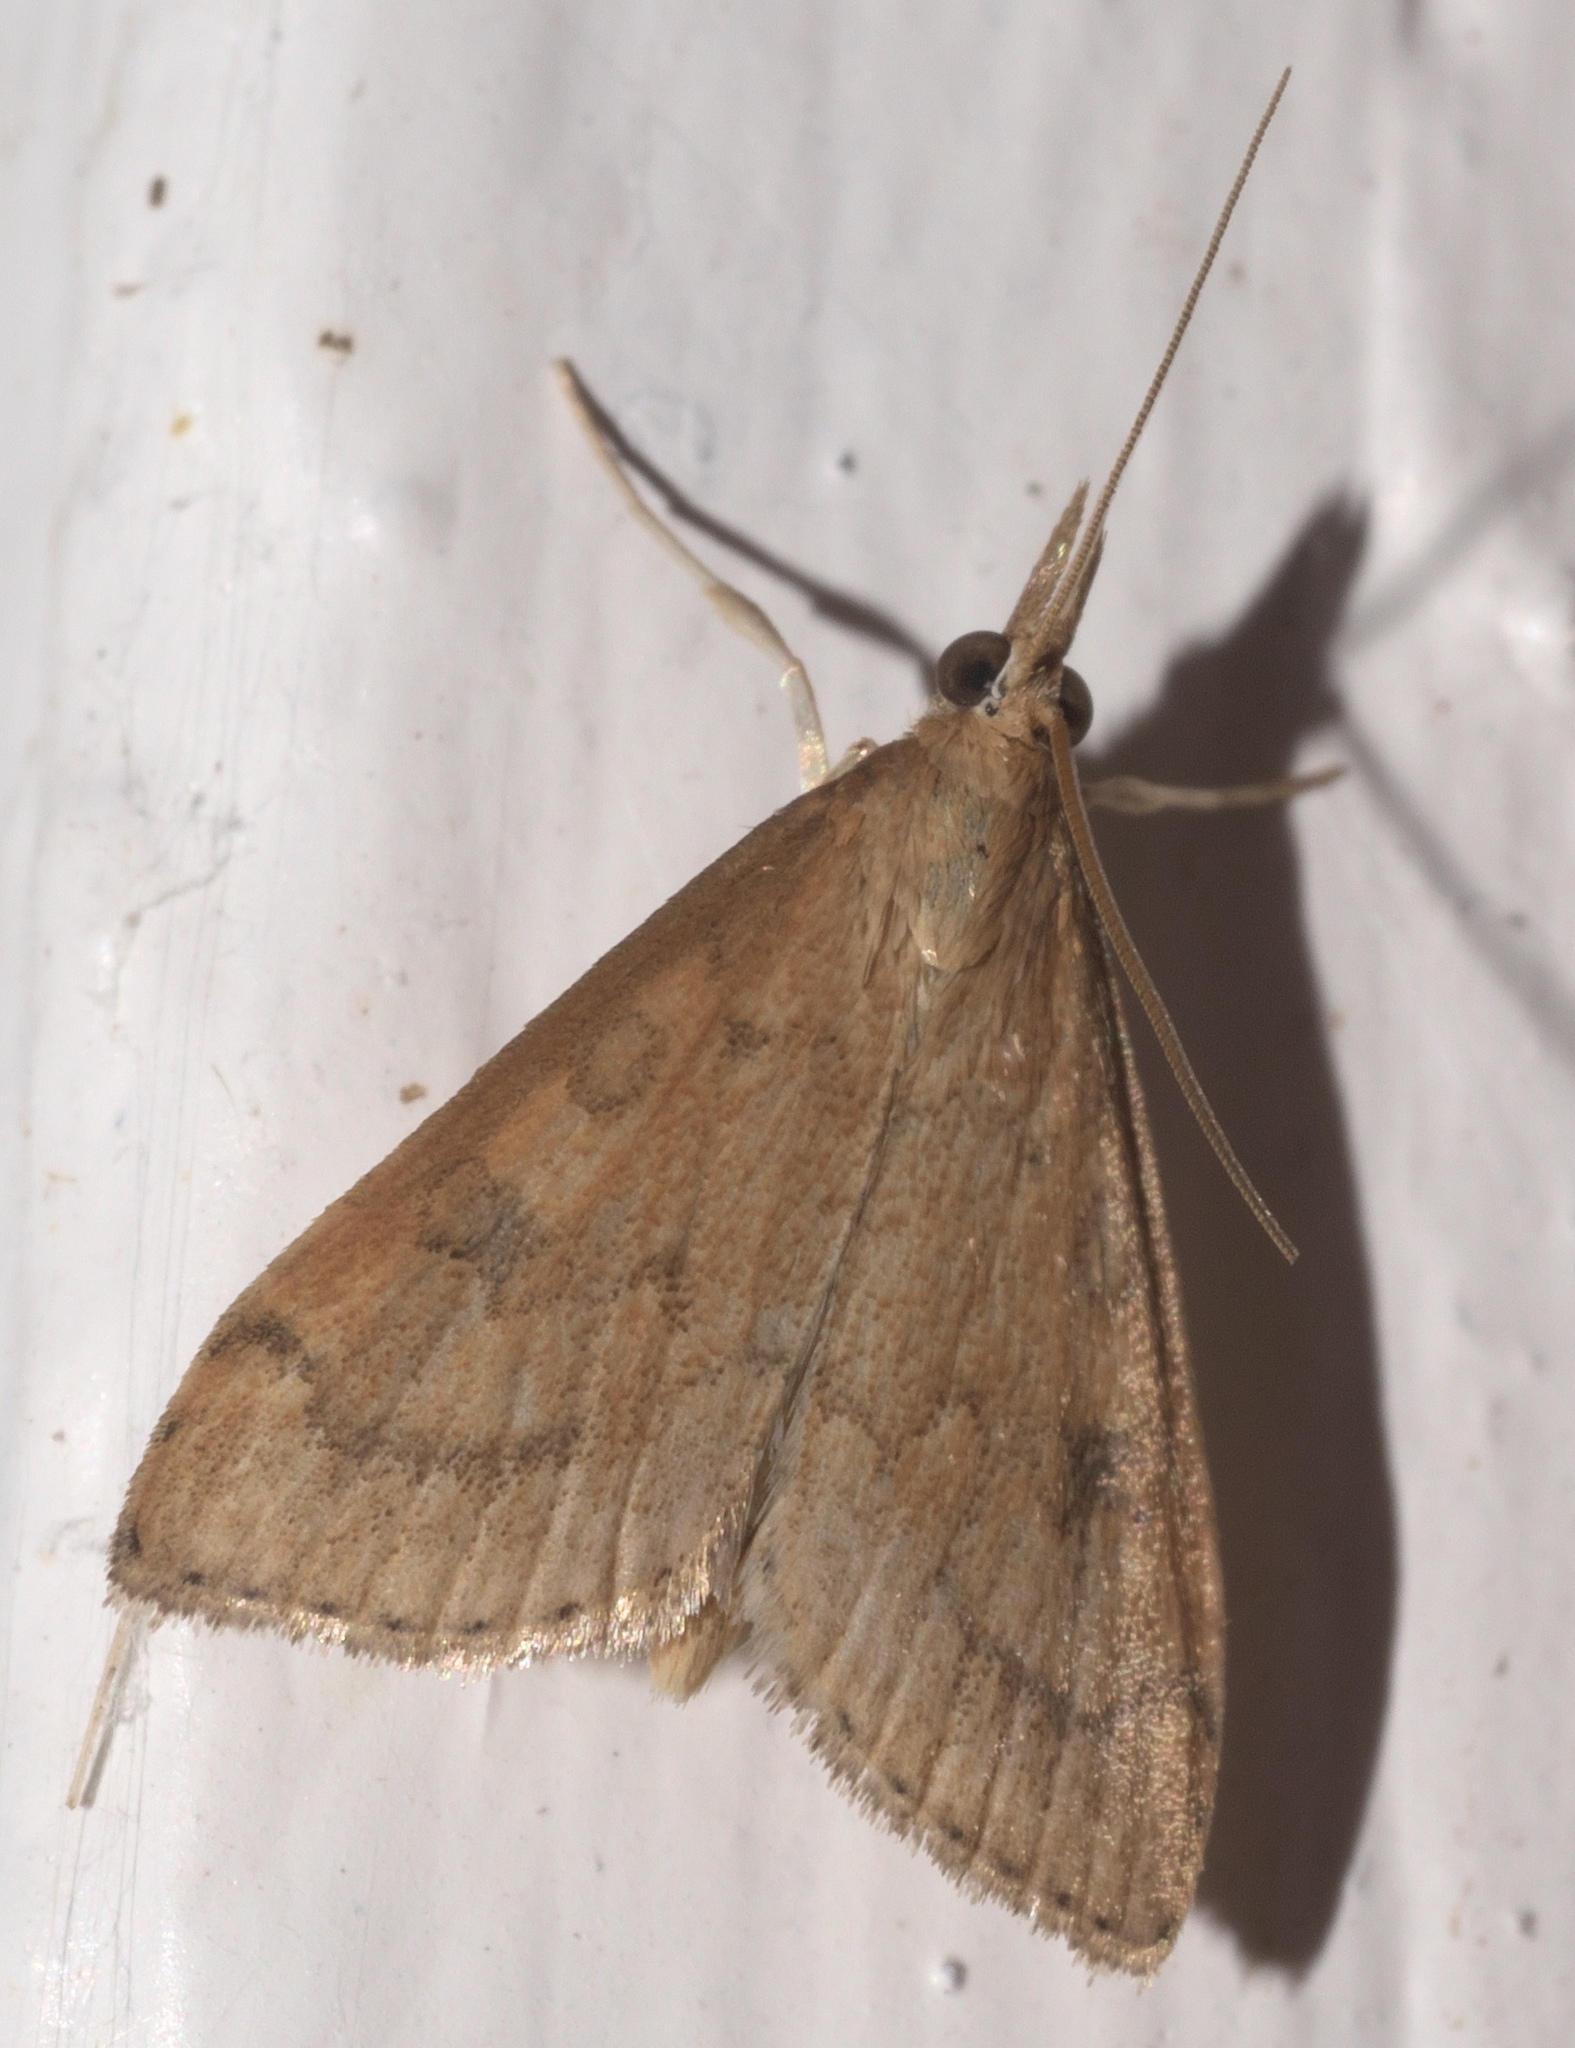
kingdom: Animalia
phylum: Arthropoda
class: Insecta
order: Lepidoptera
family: Crambidae
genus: Udea
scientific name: Udea rubigalis
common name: Celery leaftier moth
